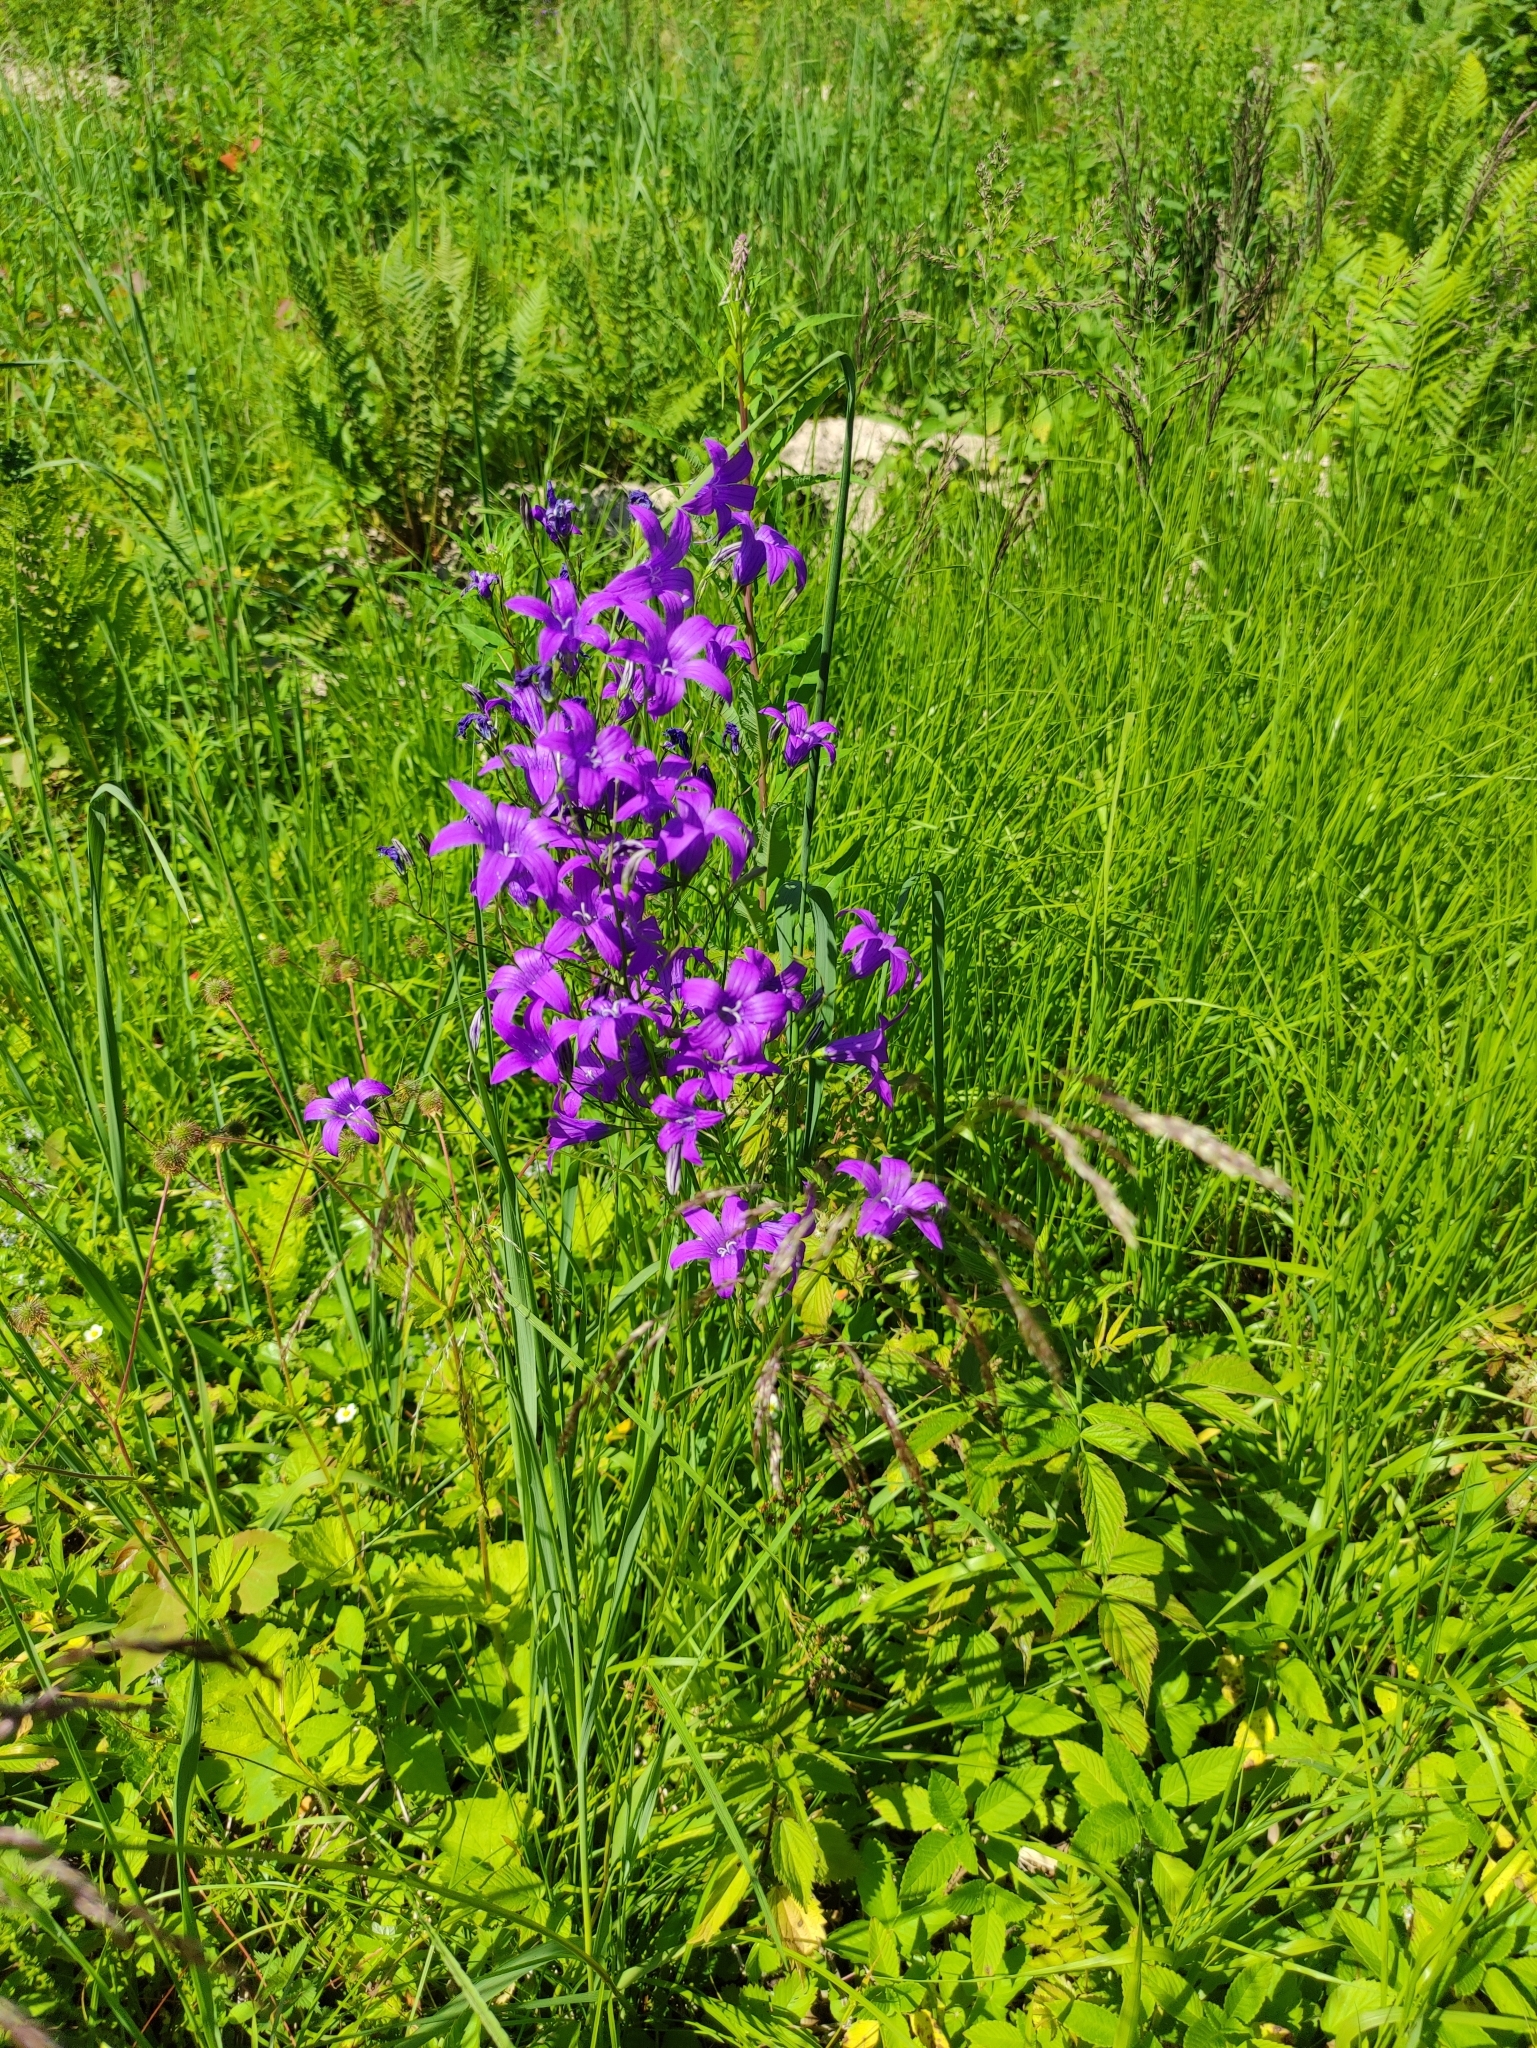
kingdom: Plantae
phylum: Tracheophyta
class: Magnoliopsida
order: Asterales
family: Campanulaceae
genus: Campanula
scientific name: Campanula patula
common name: Spreading bellflower
